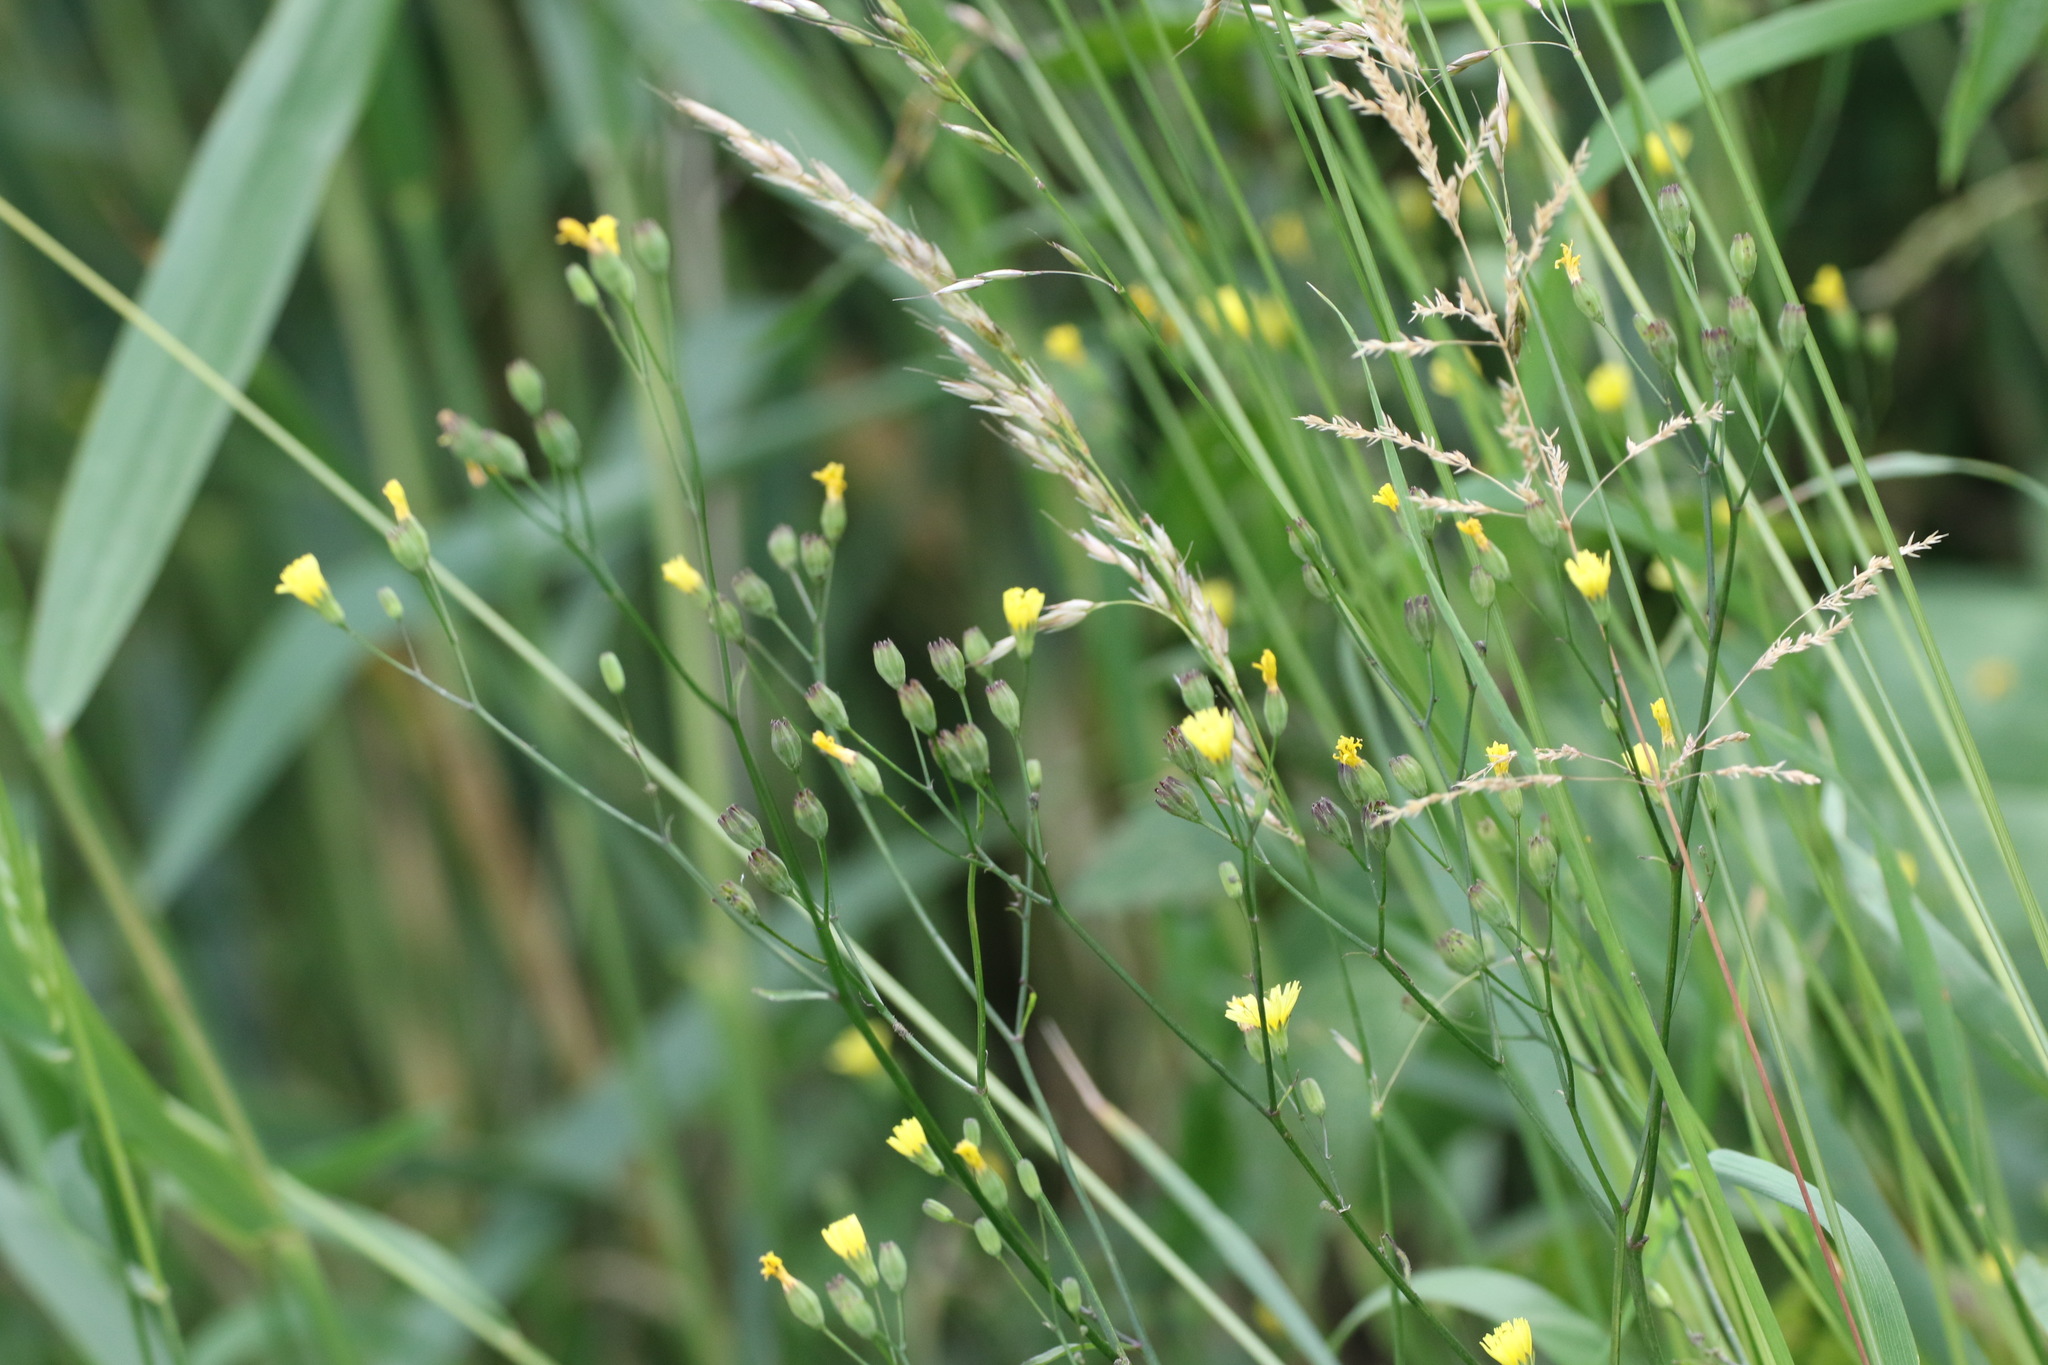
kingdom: Plantae
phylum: Tracheophyta
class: Magnoliopsida
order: Asterales
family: Asteraceae
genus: Lapsana
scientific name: Lapsana communis
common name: Nipplewort
